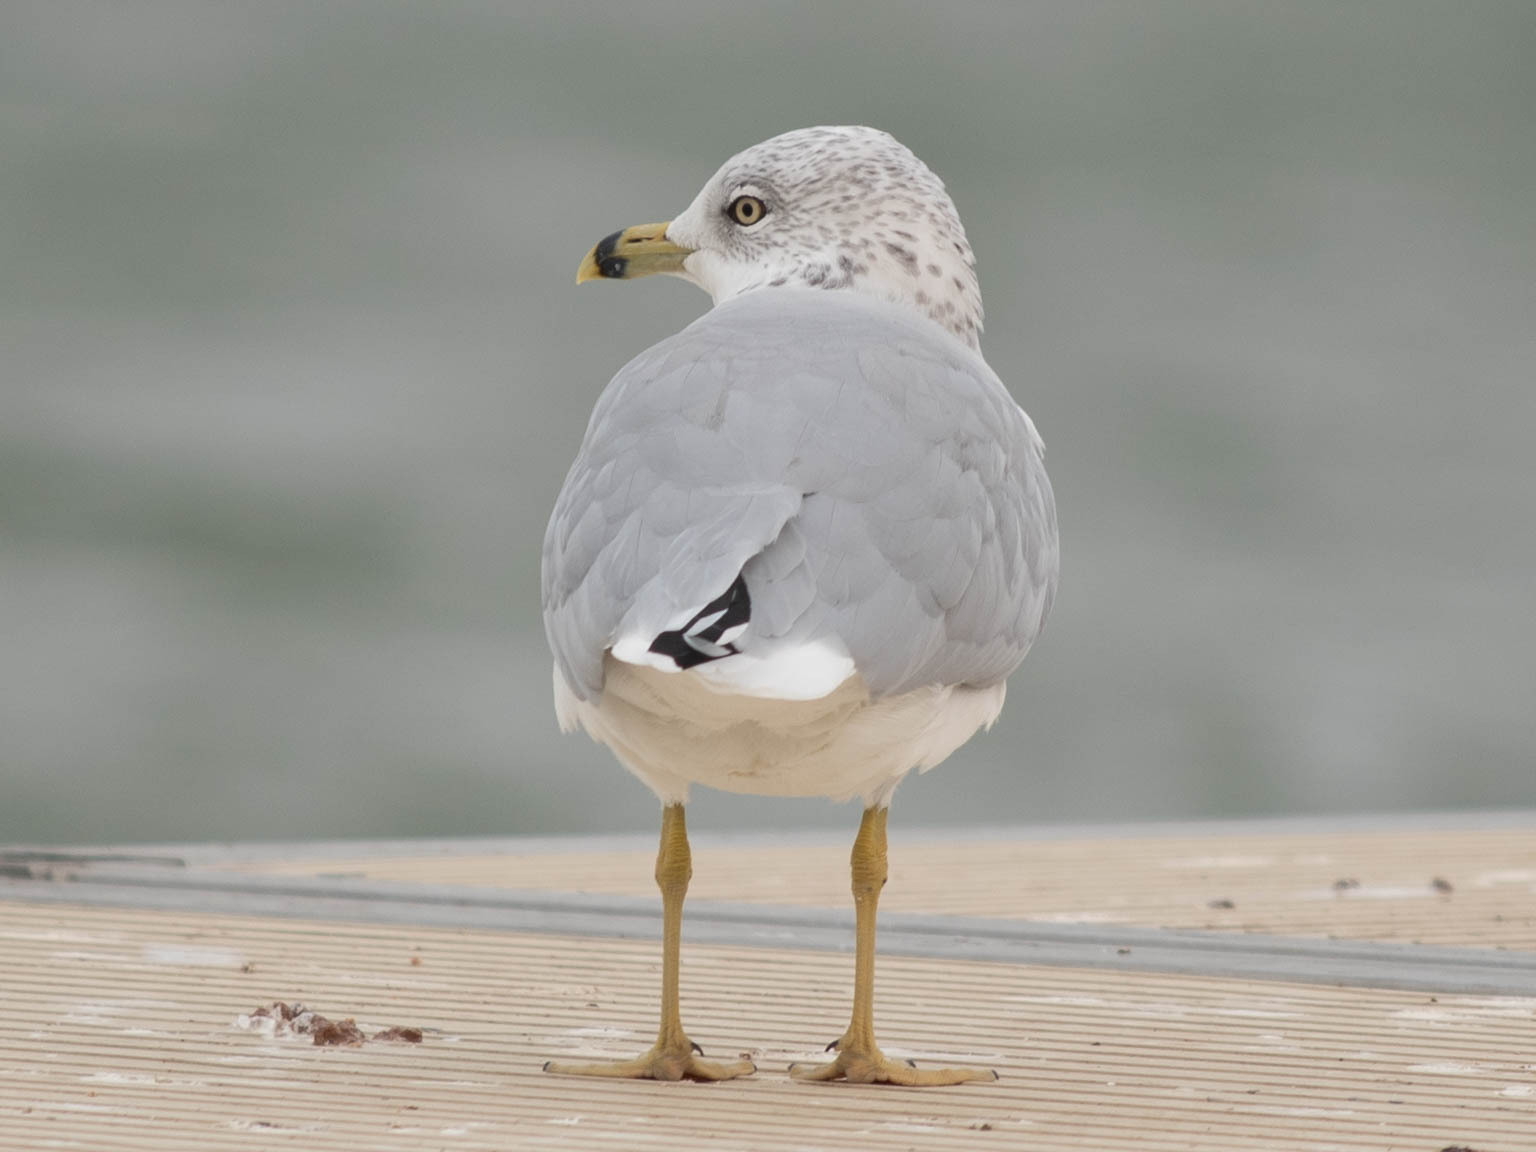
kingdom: Animalia
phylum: Chordata
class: Aves
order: Charadriiformes
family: Laridae
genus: Larus
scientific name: Larus delawarensis
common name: Ring-billed gull
